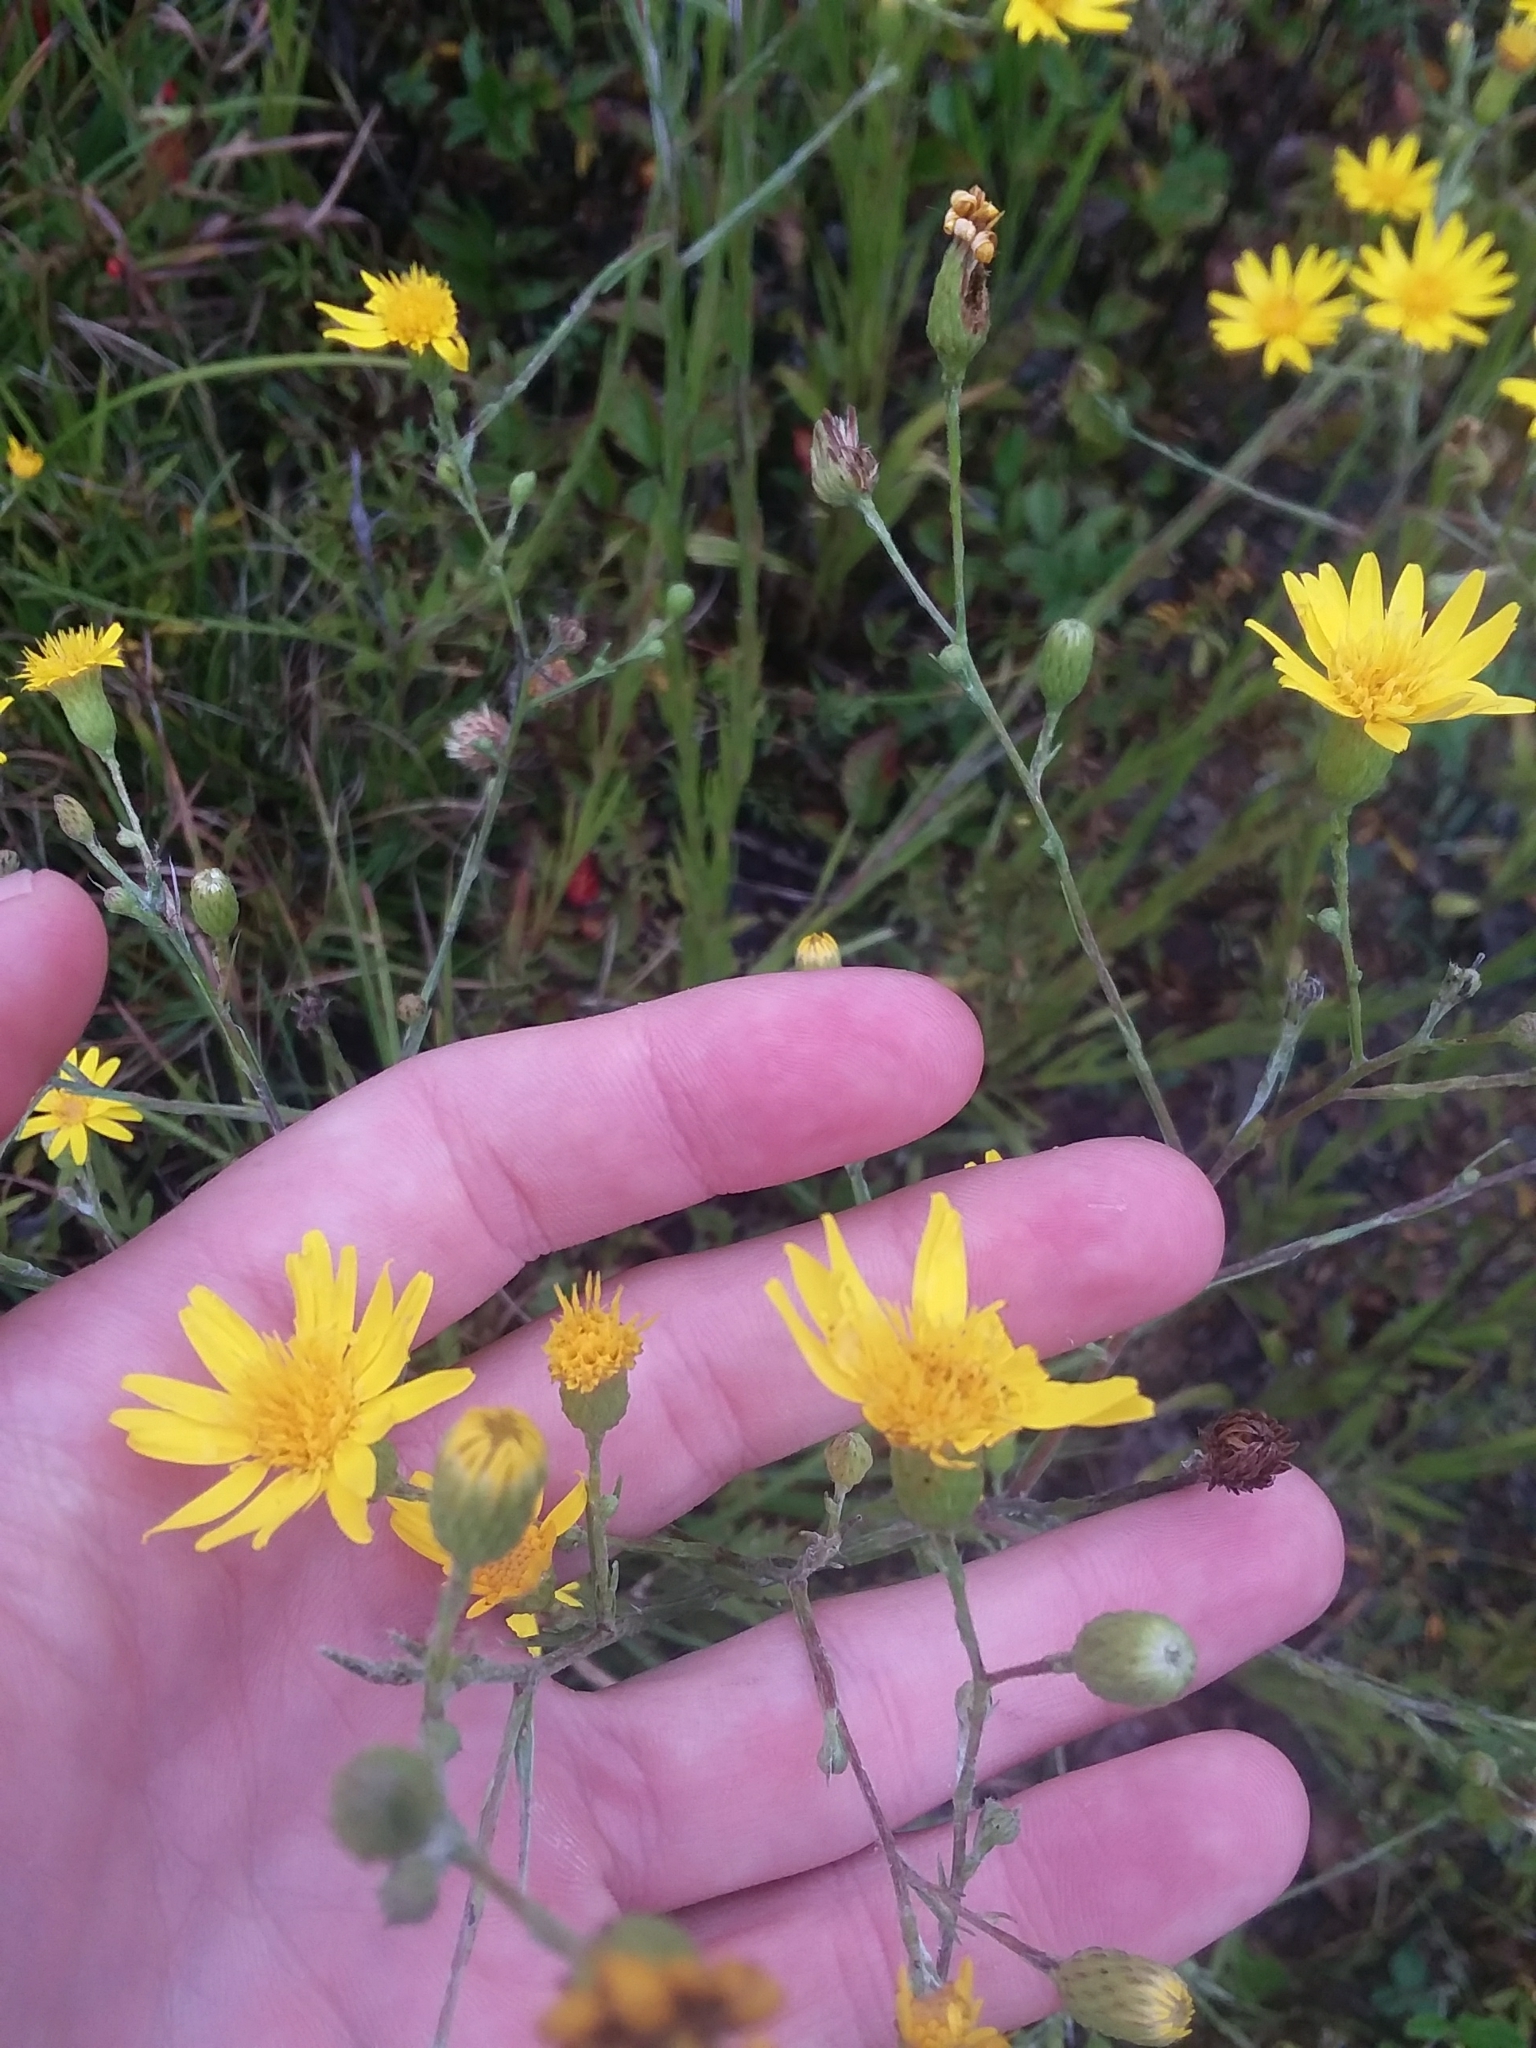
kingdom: Plantae
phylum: Tracheophyta
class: Magnoliopsida
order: Asterales
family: Asteraceae
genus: Pityopsis
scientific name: Pityopsis graminifolia
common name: Grass-leaf golden-aster
